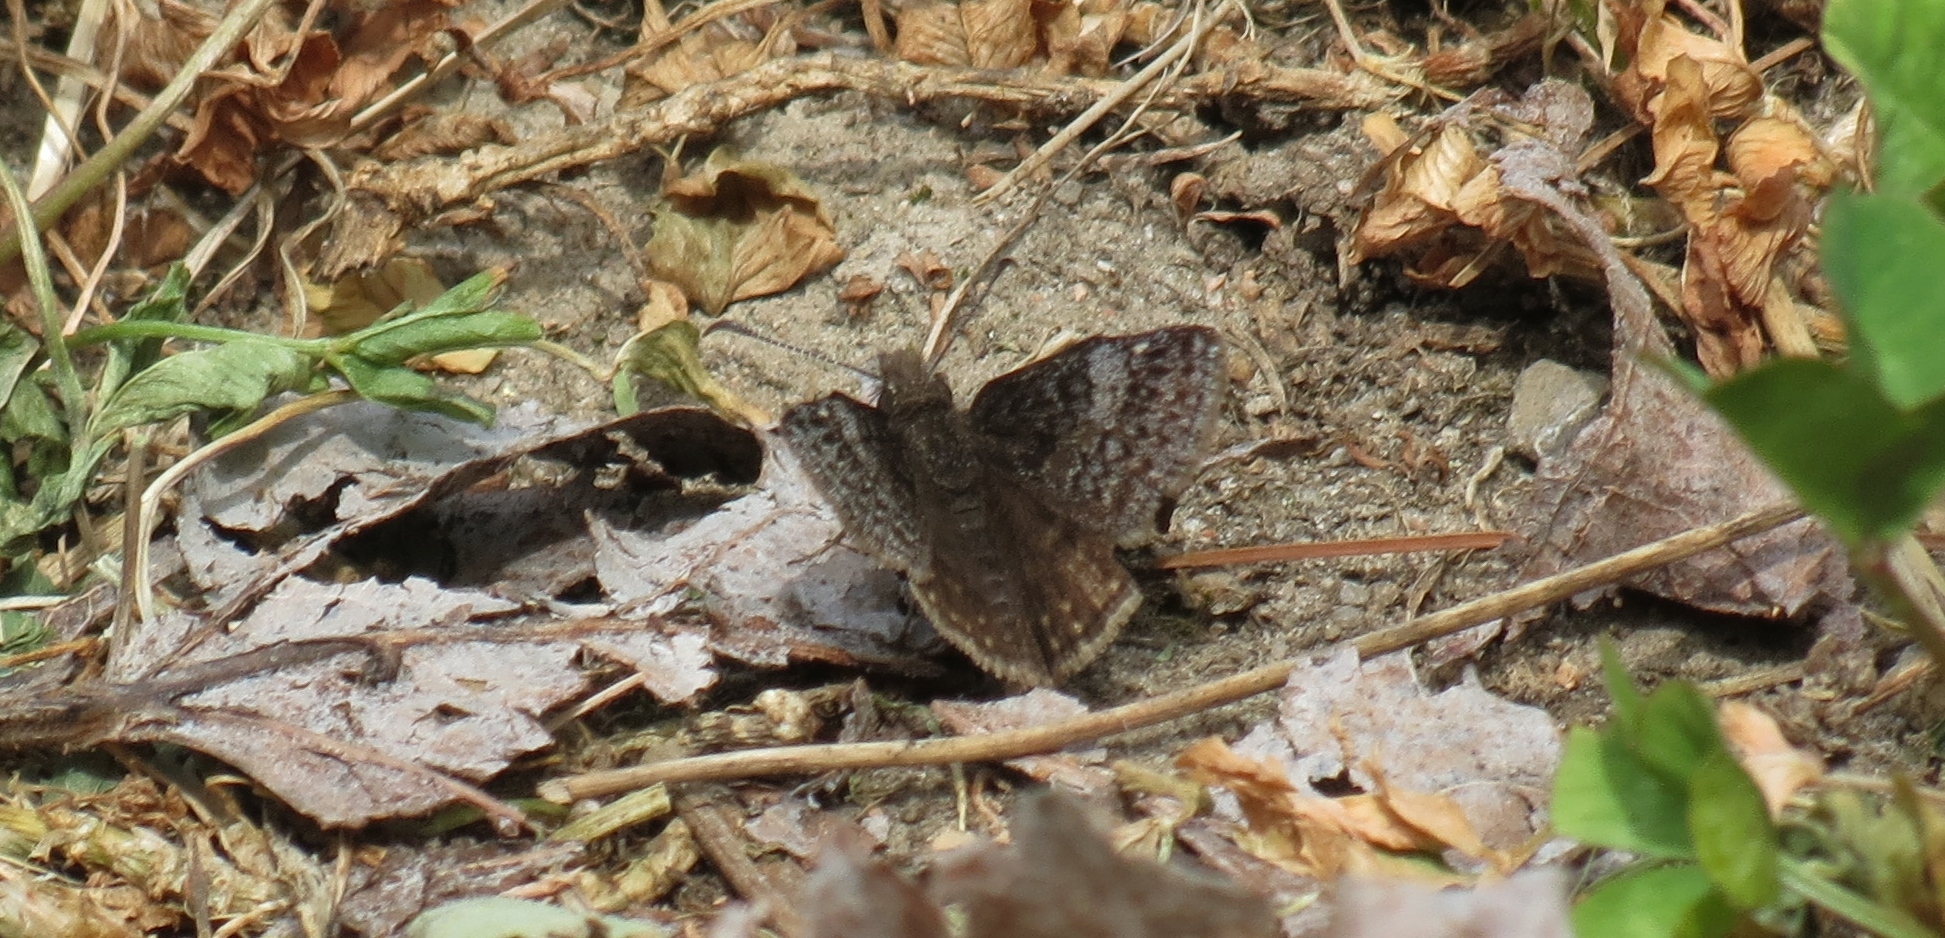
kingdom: Animalia
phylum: Arthropoda
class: Insecta
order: Lepidoptera
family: Hesperiidae
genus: Erynnis
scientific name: Erynnis icelus
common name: Dreamy duskywing
